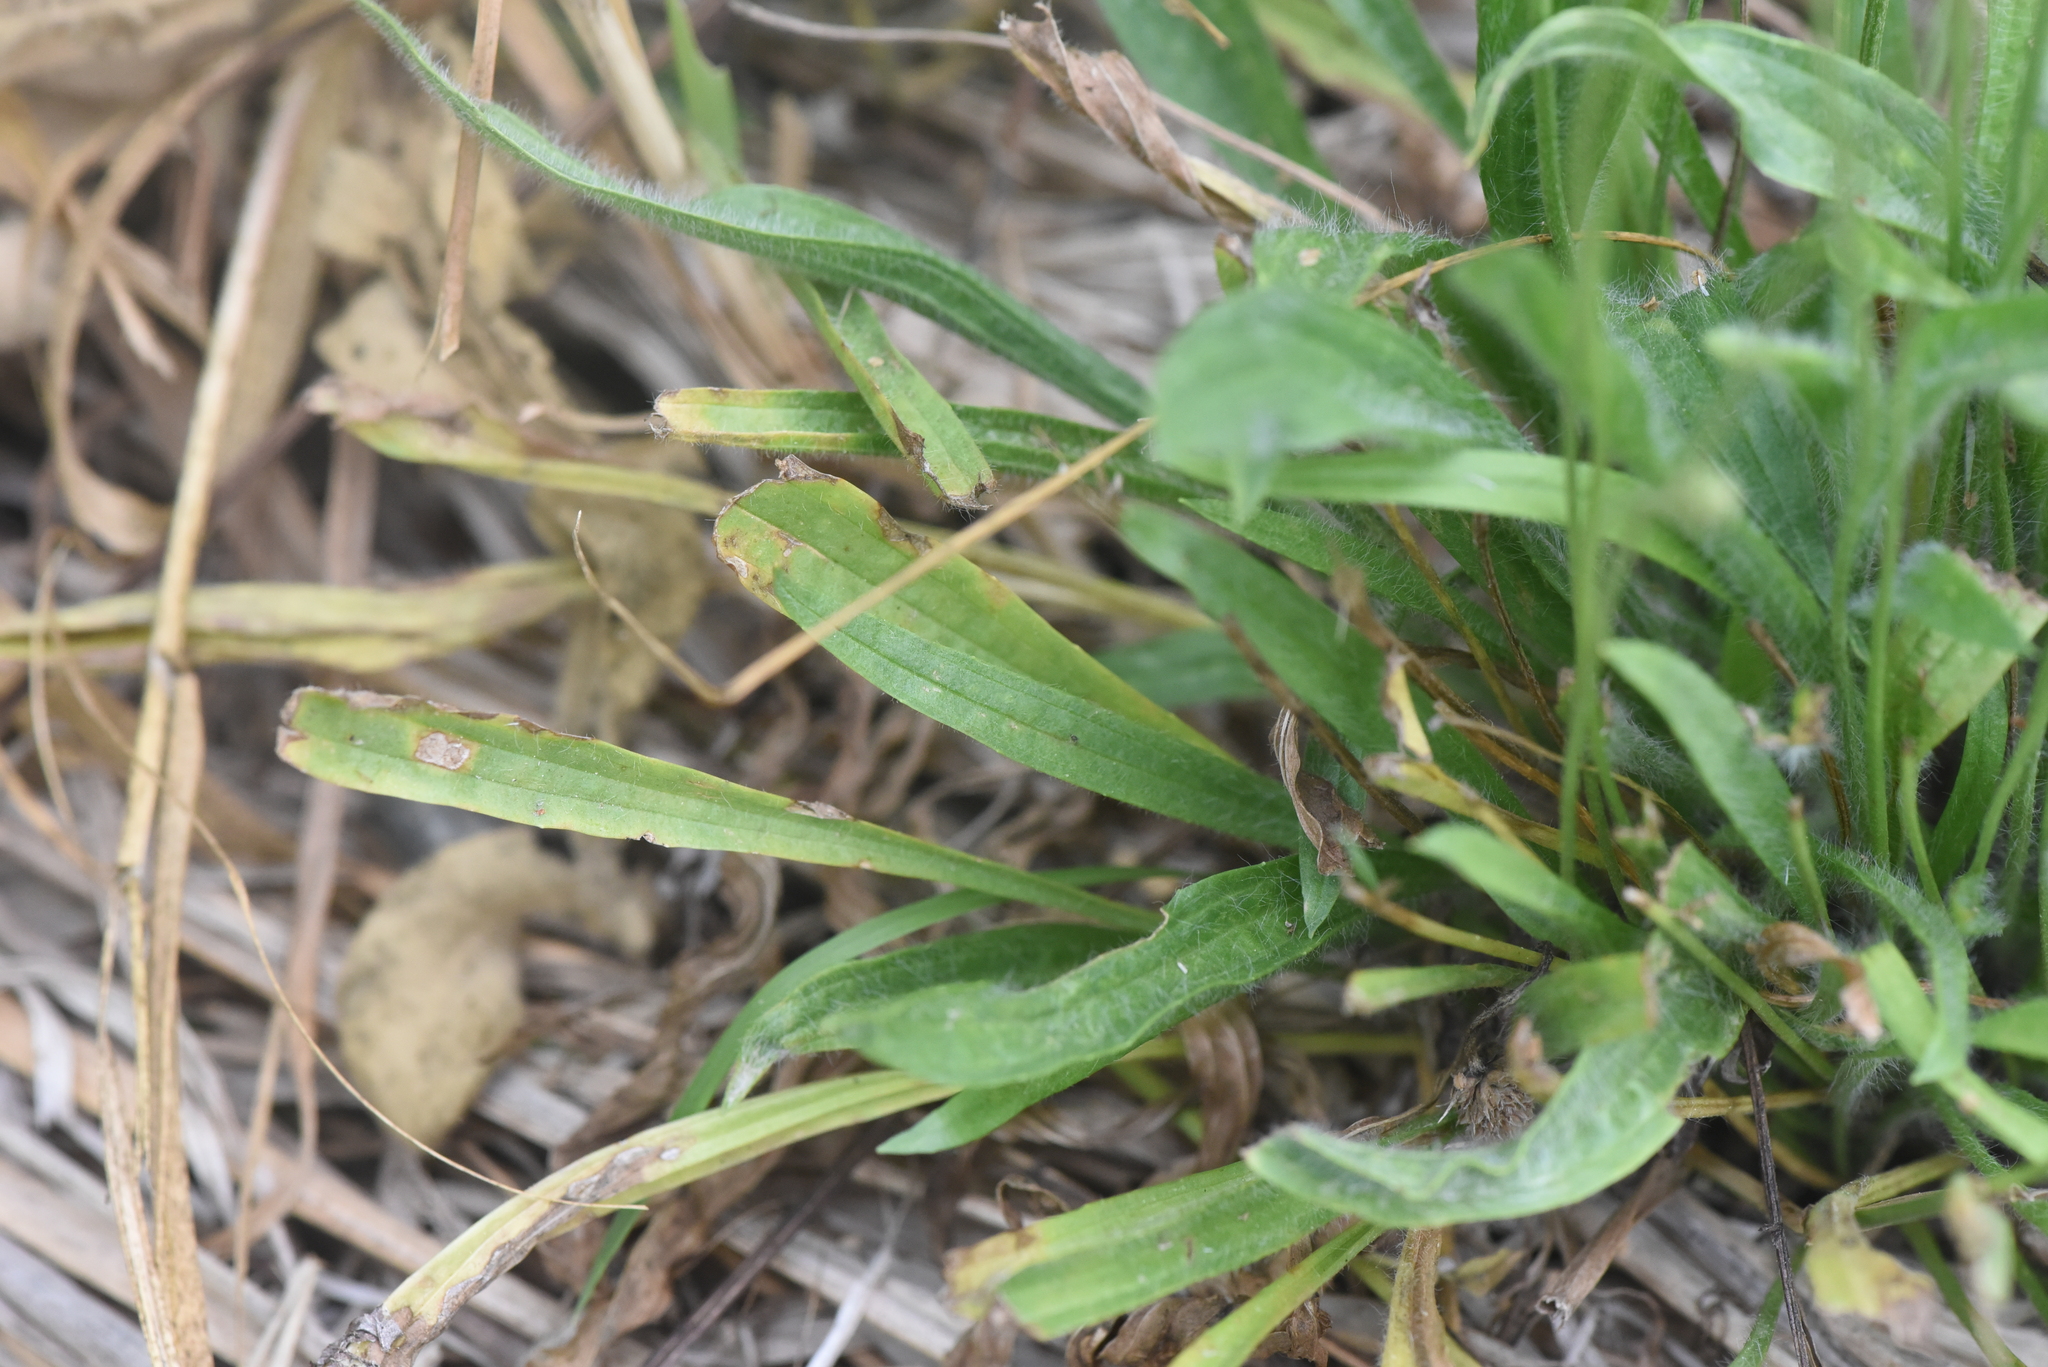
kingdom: Plantae
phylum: Tracheophyta
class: Magnoliopsida
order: Lamiales
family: Plantaginaceae
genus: Plantago
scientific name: Plantago lanceolata
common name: Ribwort plantain
